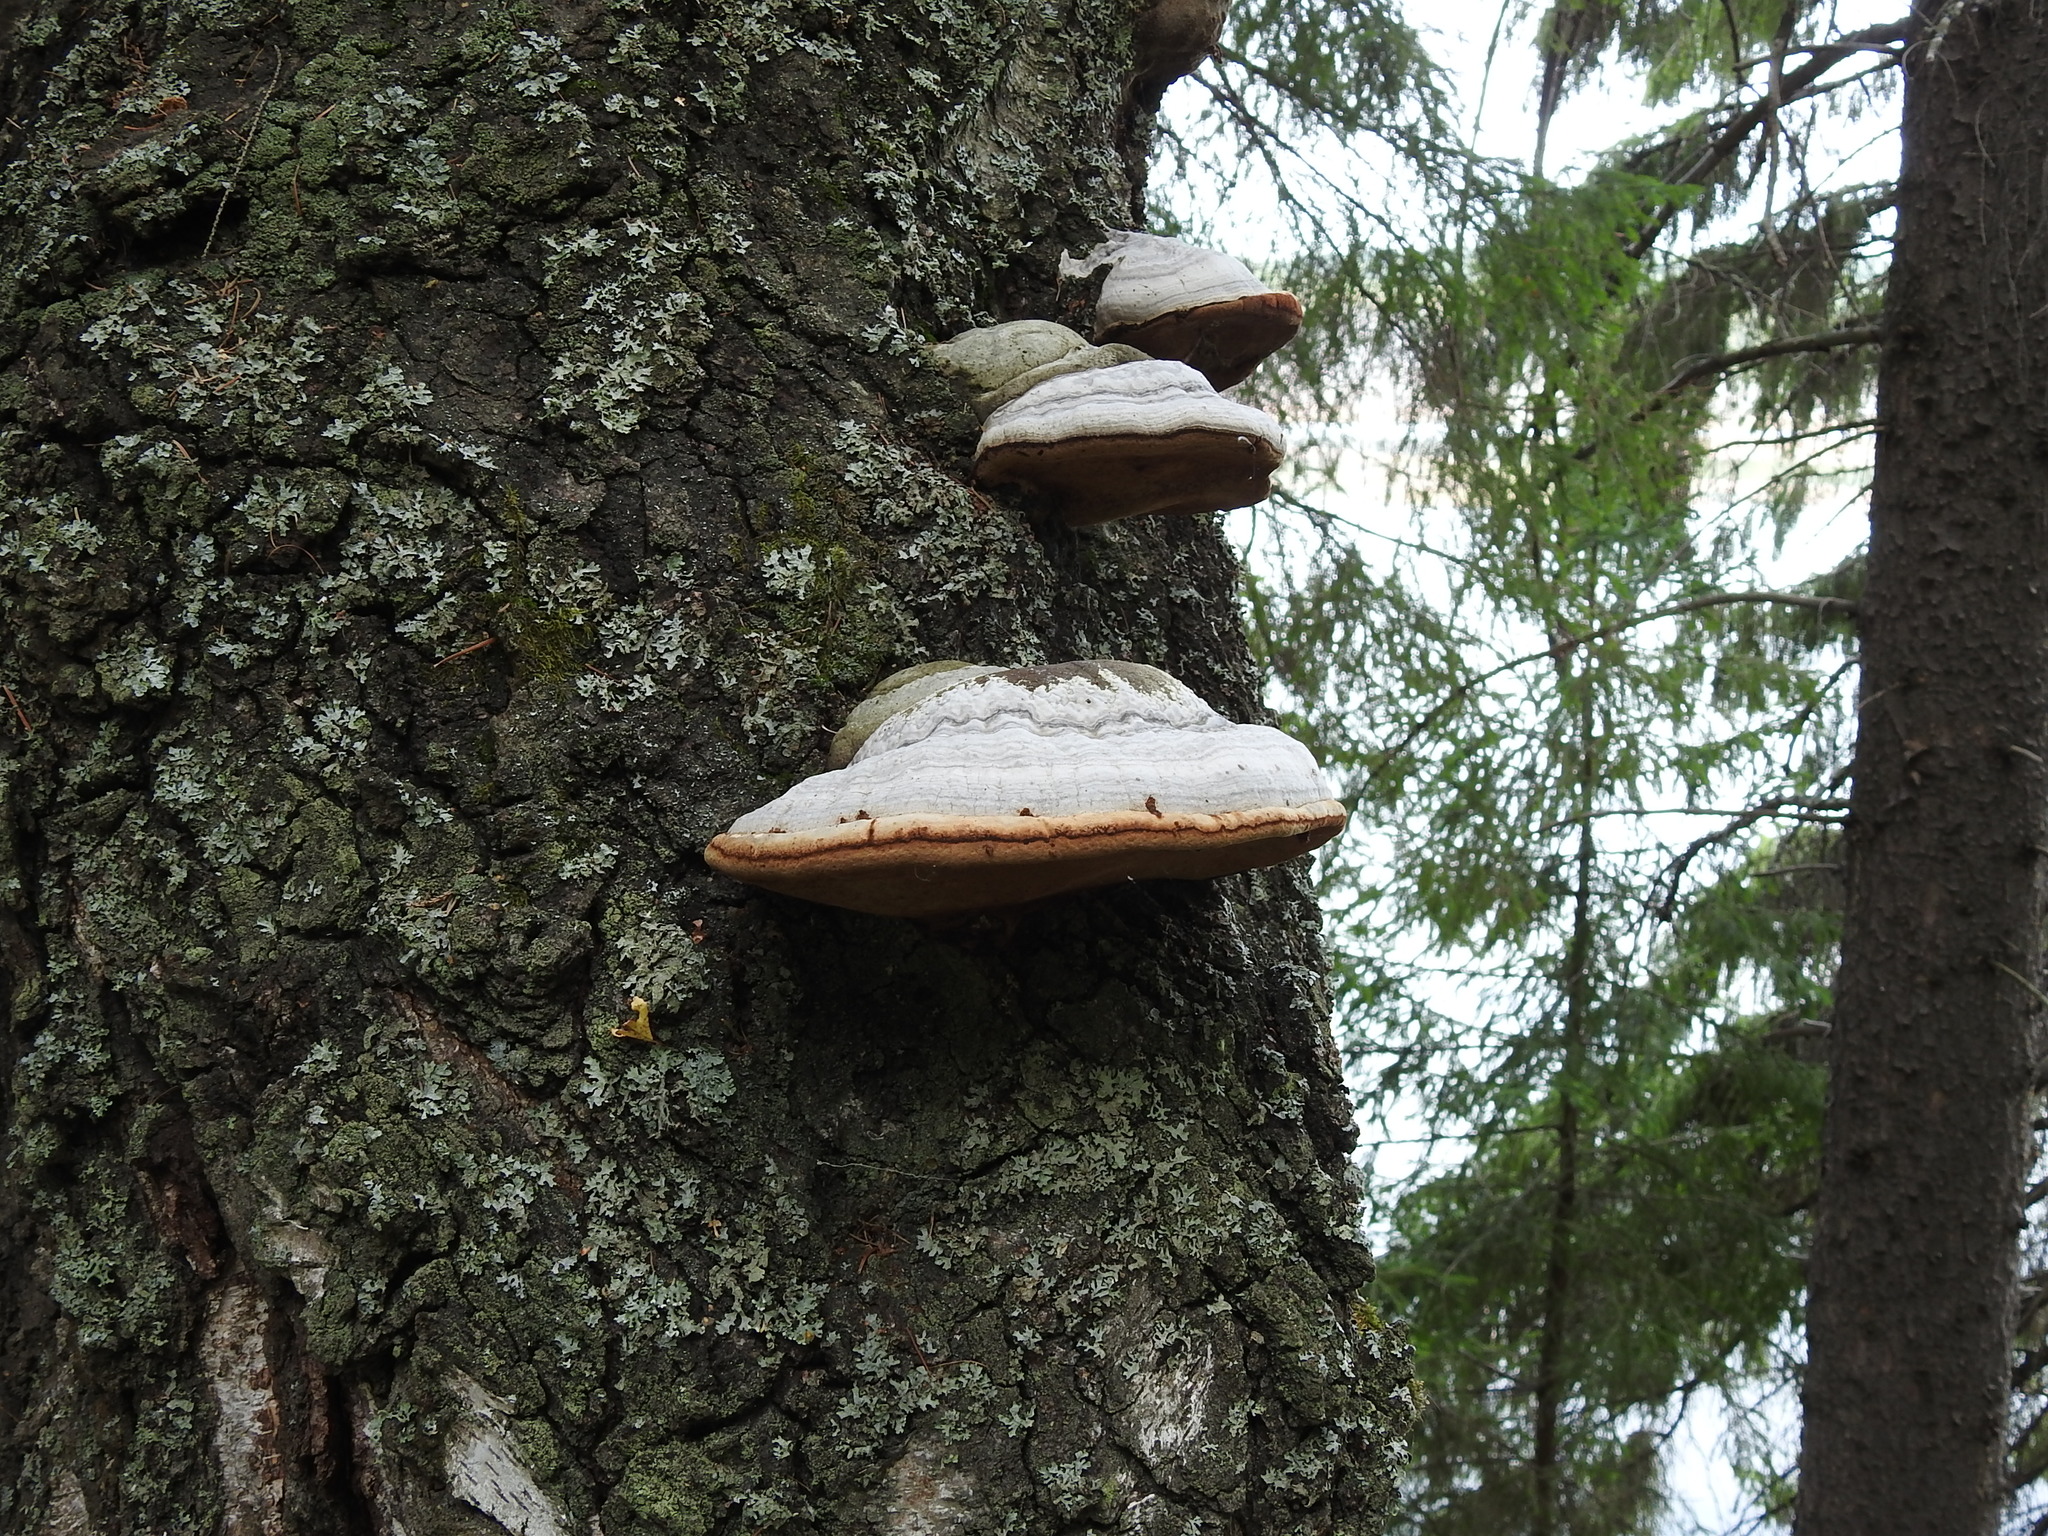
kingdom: Fungi
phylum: Basidiomycota
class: Agaricomycetes
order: Polyporales
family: Polyporaceae
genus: Fomes
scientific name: Fomes fomentarius
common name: Hoof fungus
